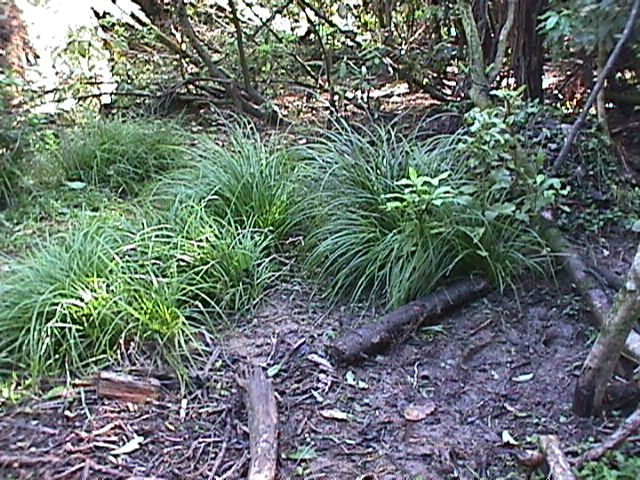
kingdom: Plantae
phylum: Tracheophyta
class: Liliopsida
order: Poales
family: Cyperaceae
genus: Carex
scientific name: Carex
